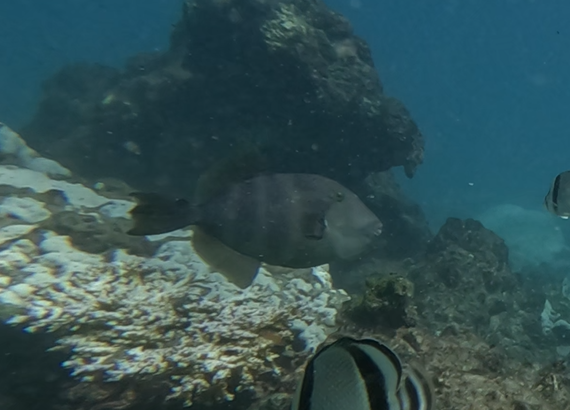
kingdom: Animalia
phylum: Chordata
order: Tetraodontiformes
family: Balistidae
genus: Pseudobalistes
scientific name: Pseudobalistes naufragium
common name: Blunthead triggerfish
